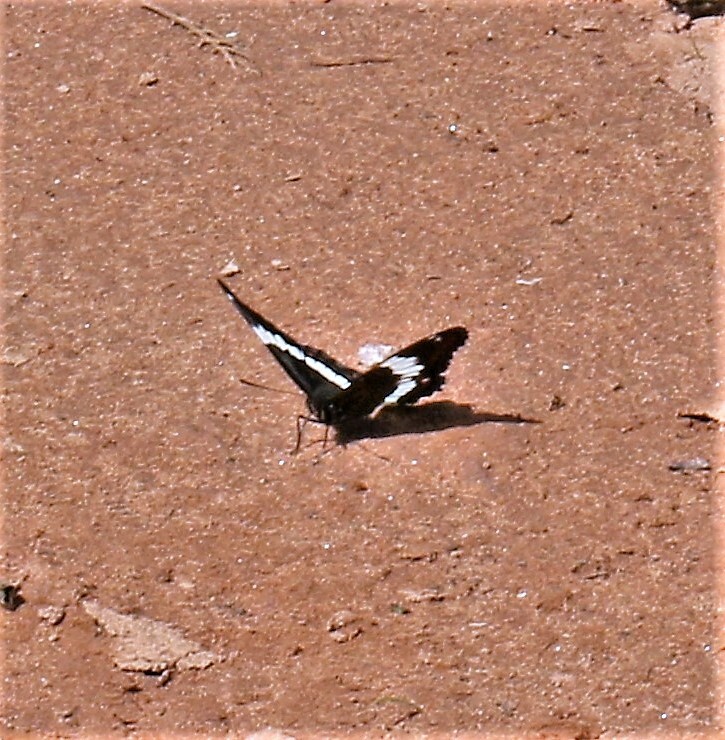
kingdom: Animalia
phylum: Arthropoda
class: Insecta
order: Lepidoptera
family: Nymphalidae
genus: Limenitis
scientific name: Limenitis arthemis
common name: Red-spotted admiral
